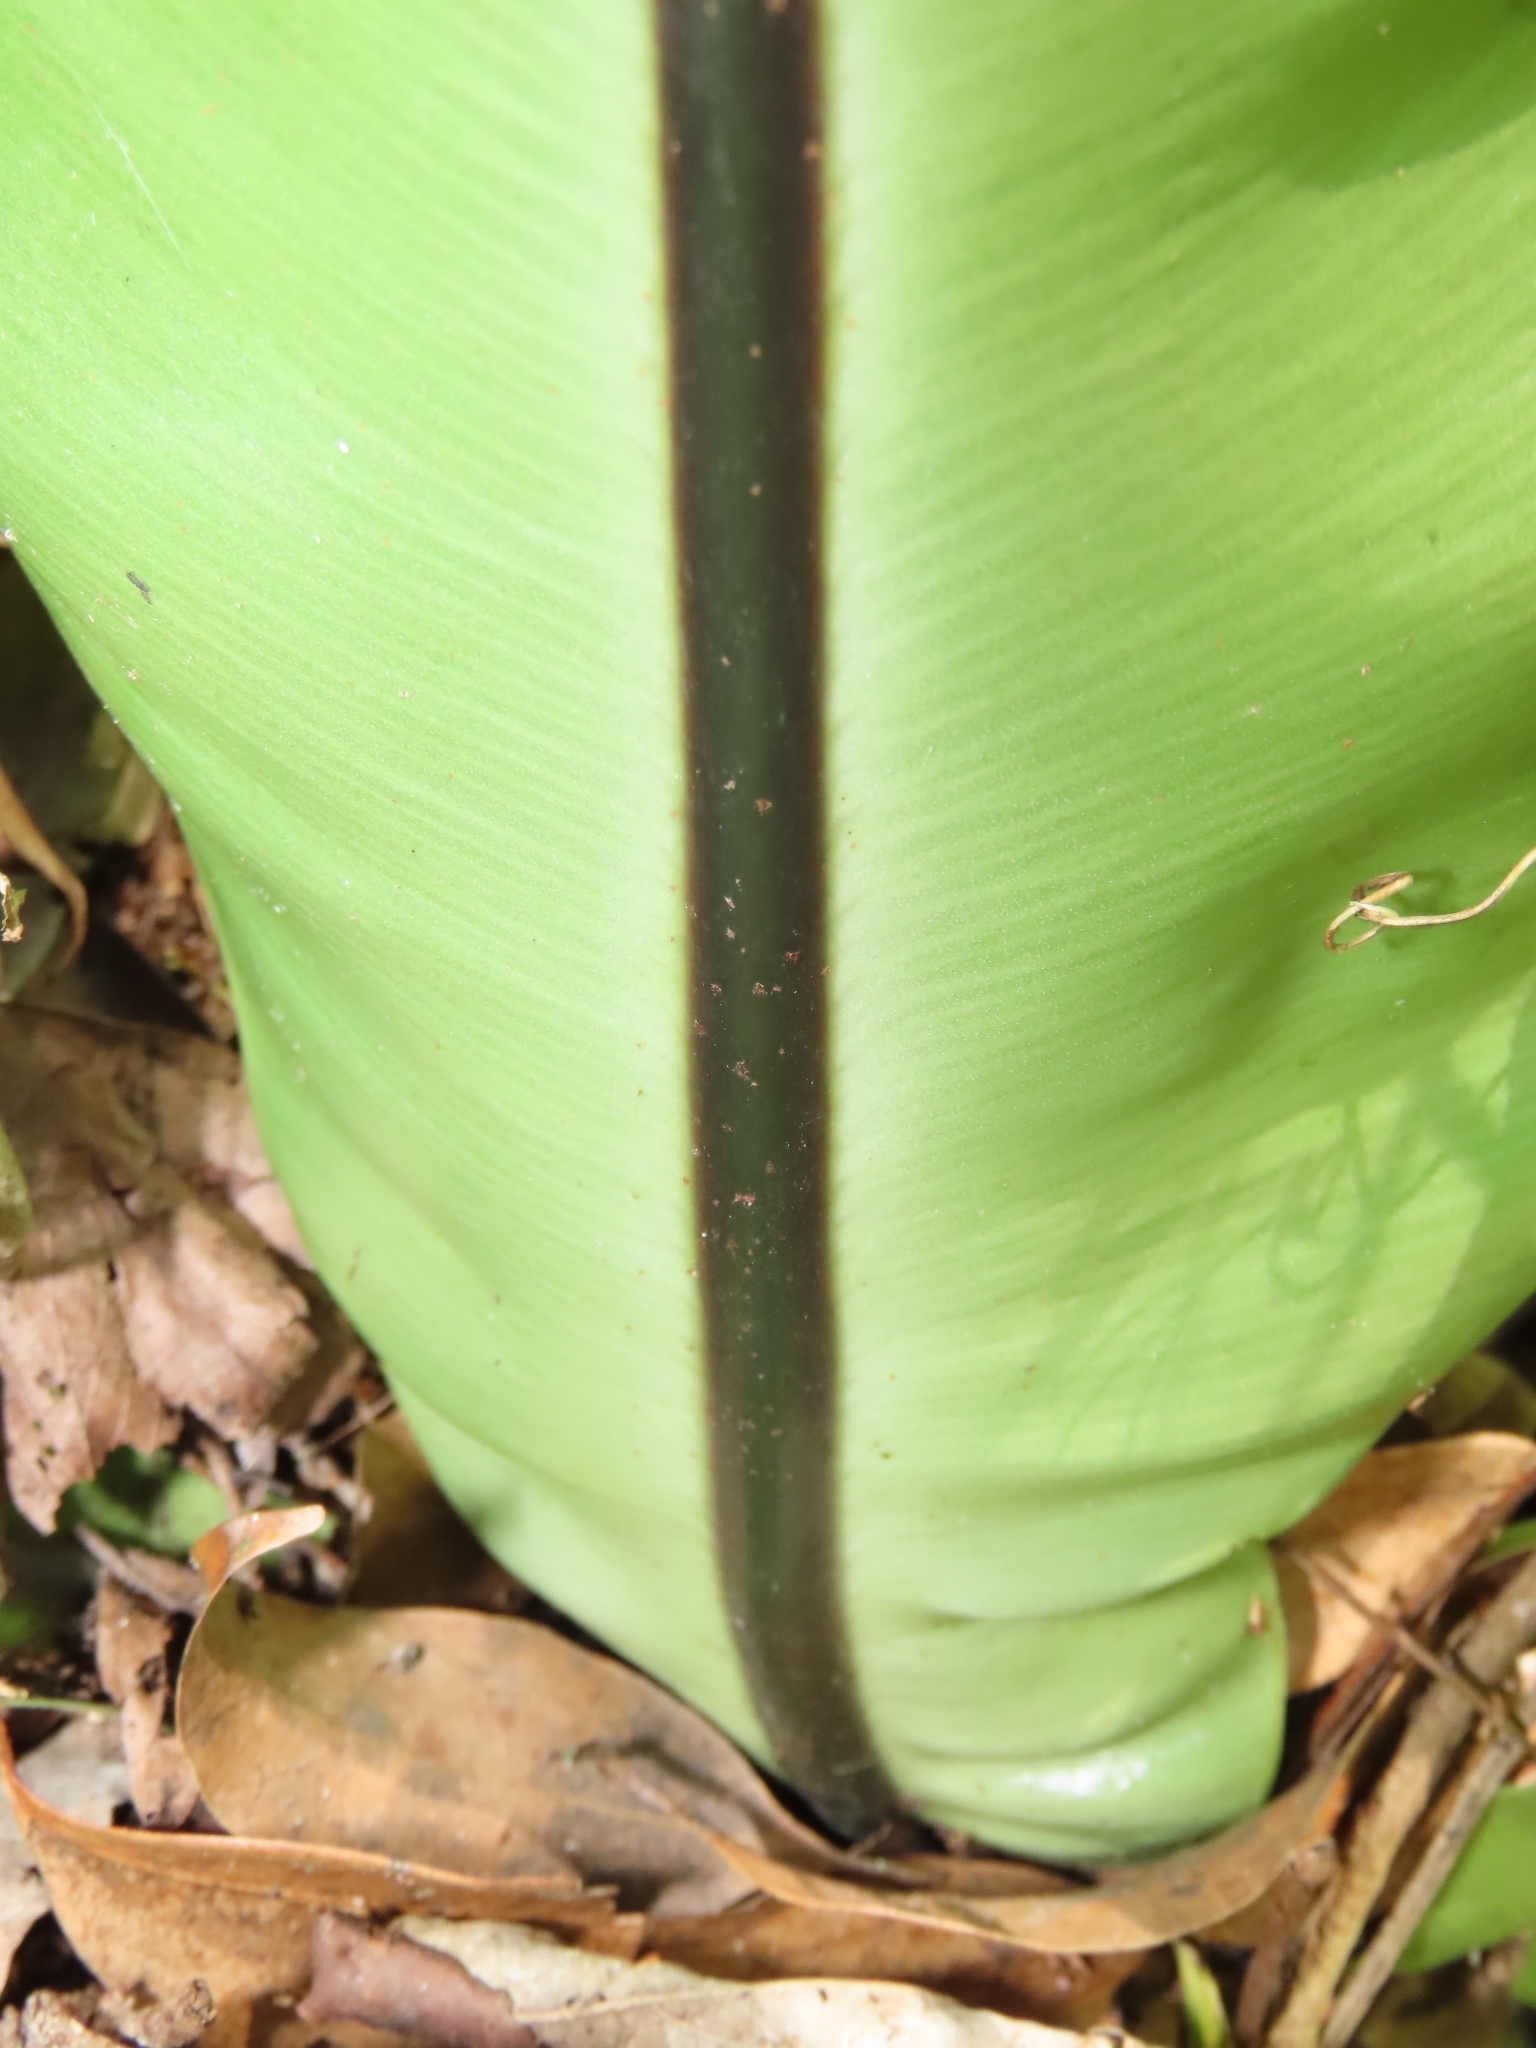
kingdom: Plantae
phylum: Tracheophyta
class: Polypodiopsida
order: Polypodiales
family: Aspleniaceae
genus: Asplenium
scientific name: Asplenium nidus
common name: Bird's-nest fern
